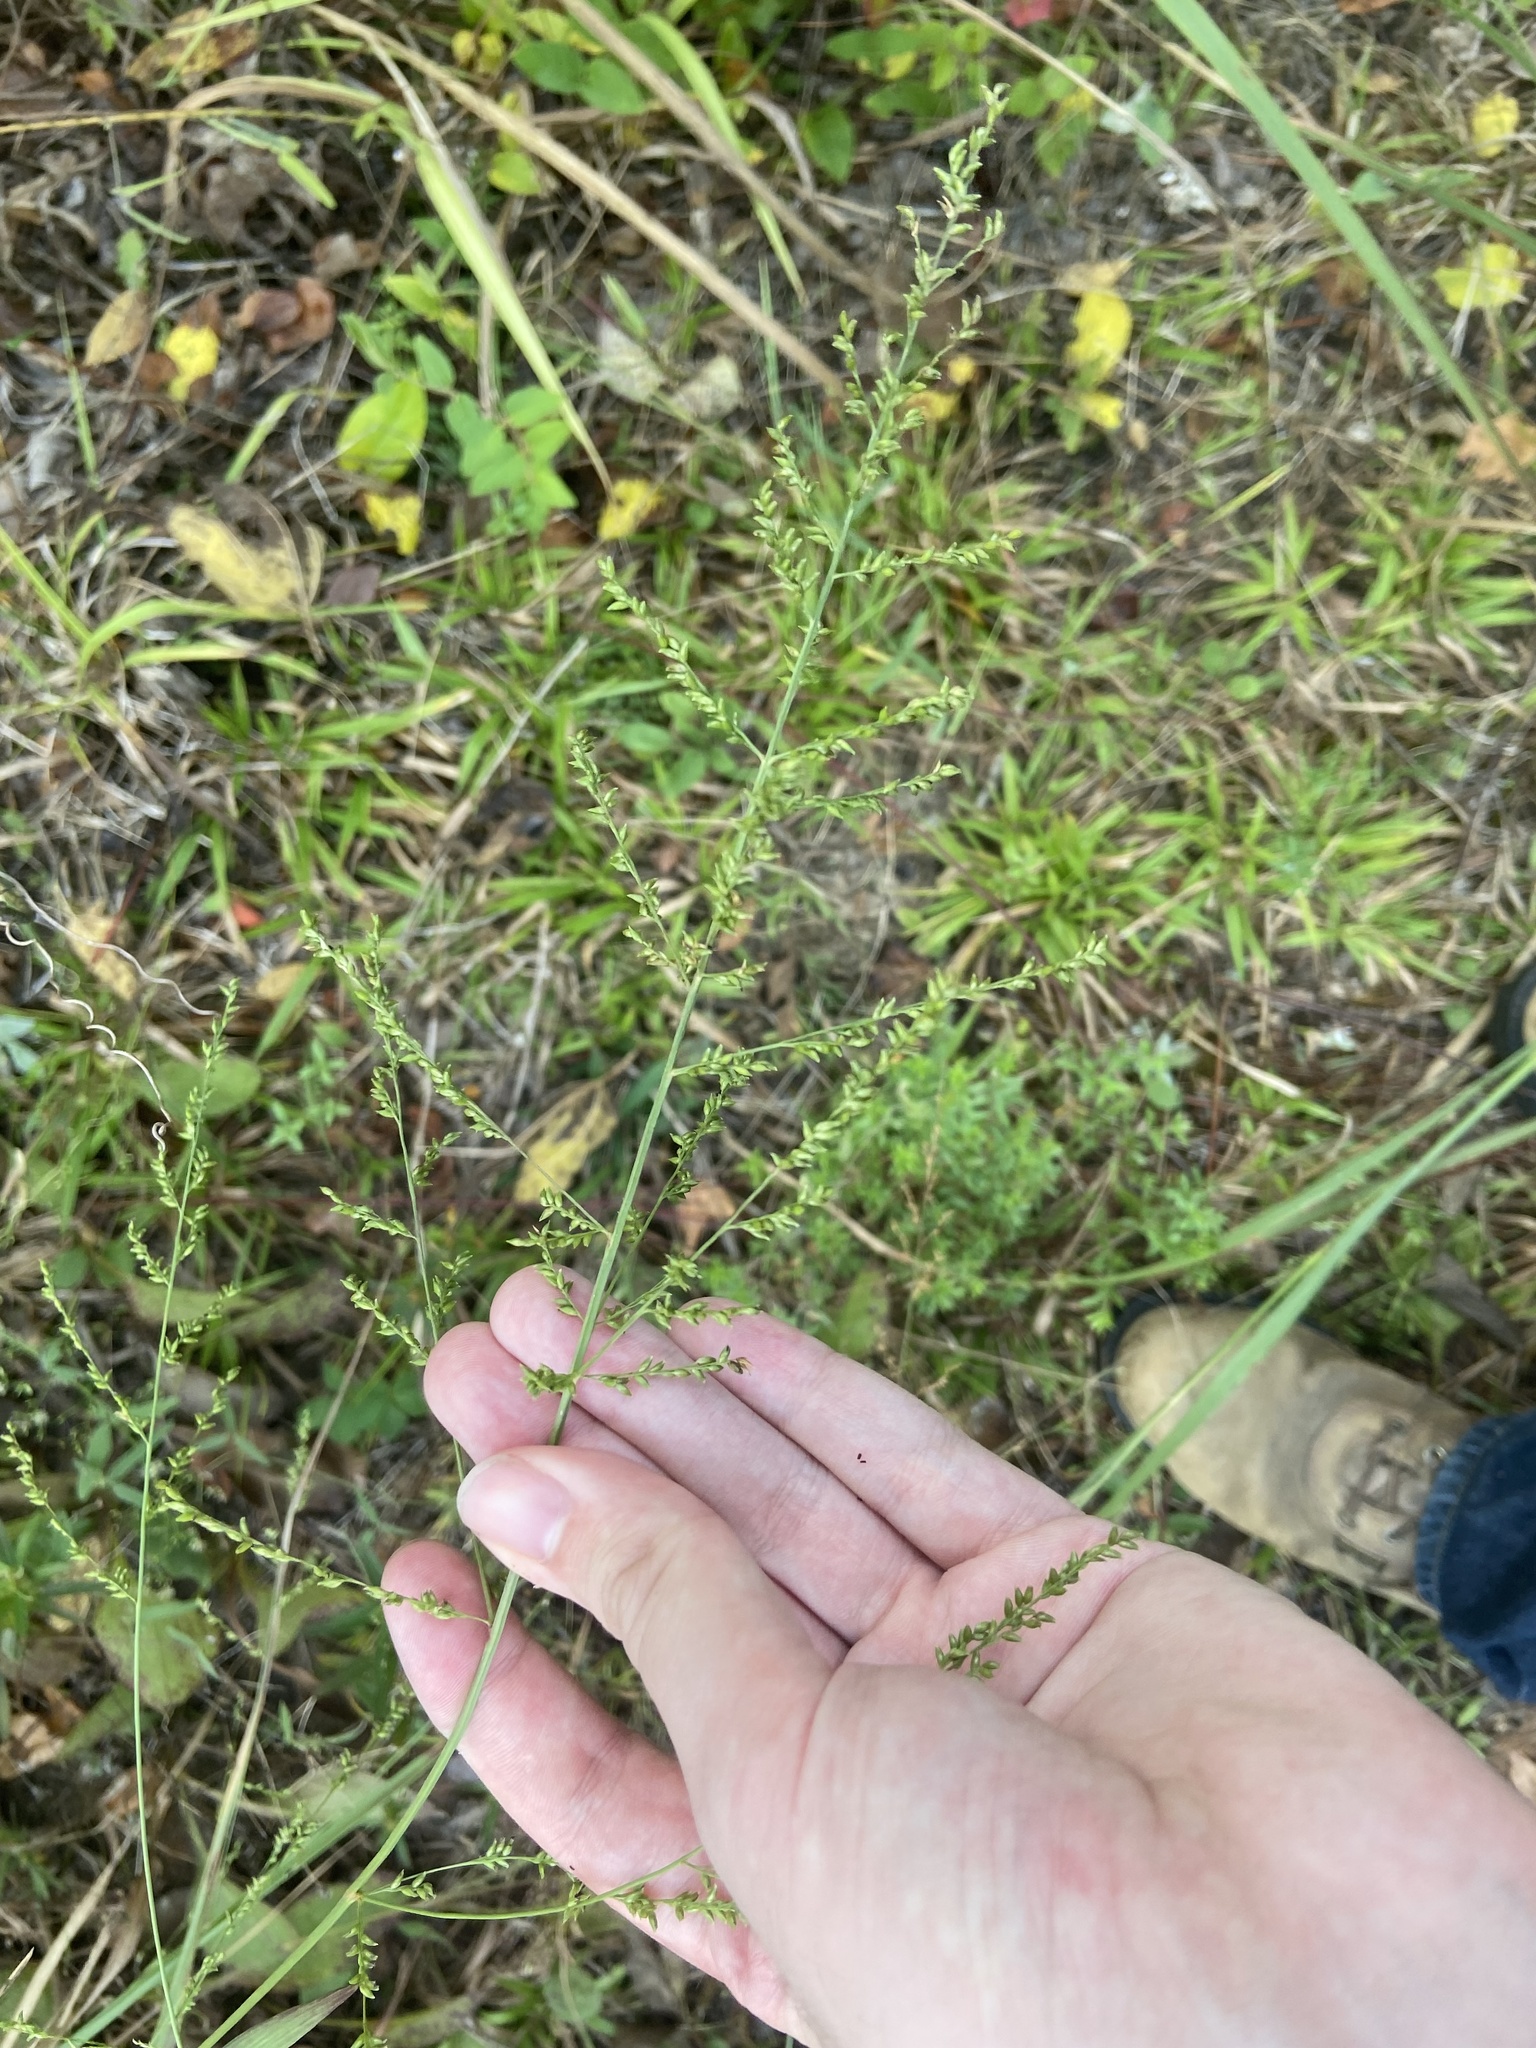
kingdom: Plantae
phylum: Tracheophyta
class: Liliopsida
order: Poales
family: Poaceae
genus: Coleataenia
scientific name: Coleataenia anceps
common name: Beaked panic grass
